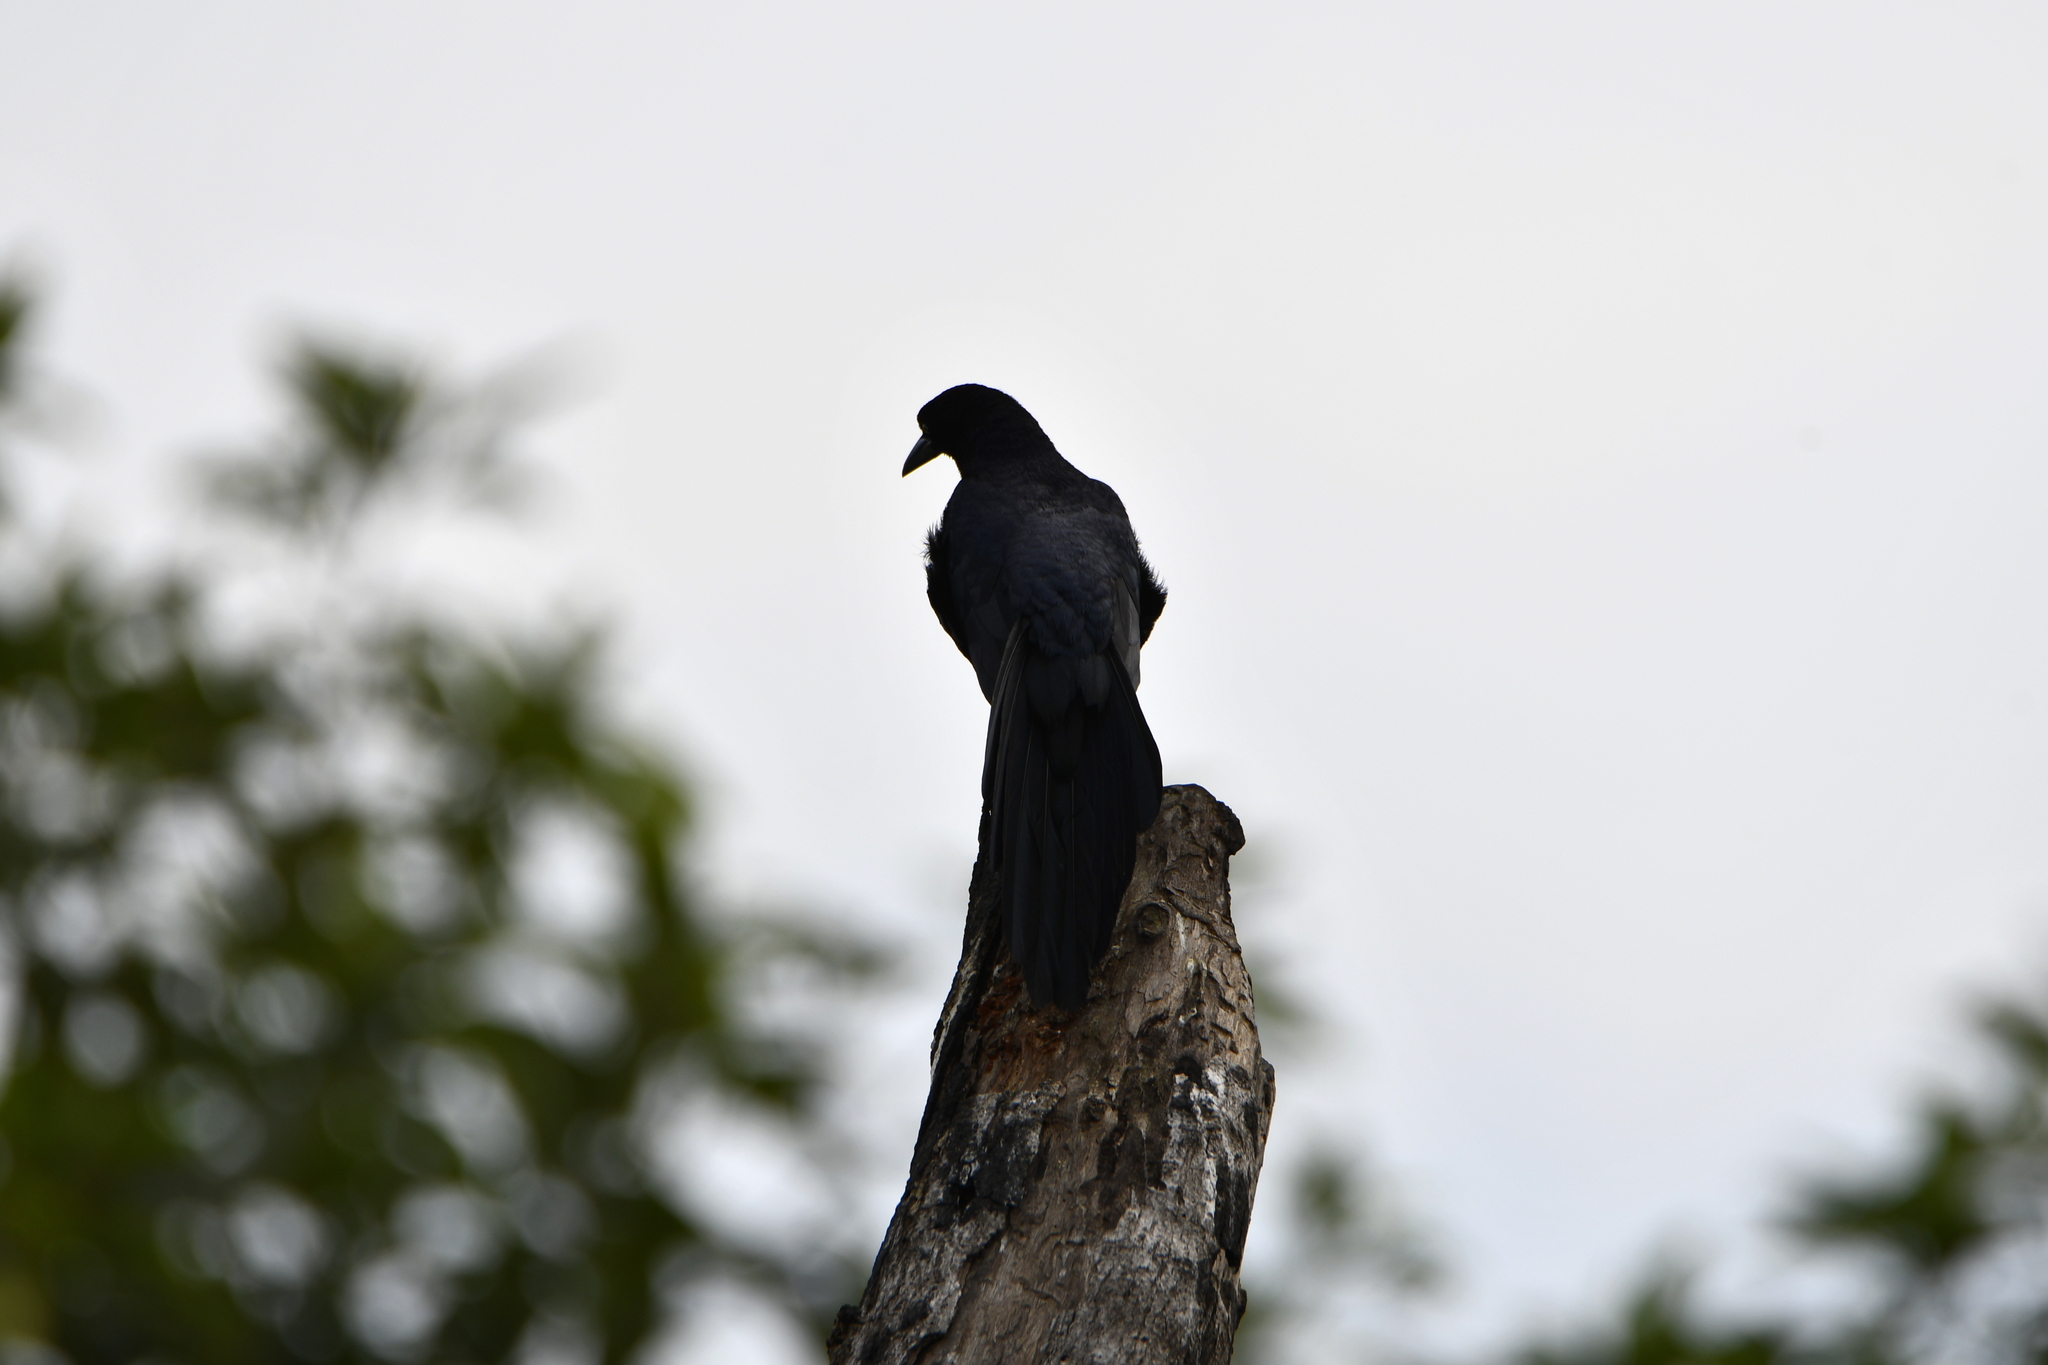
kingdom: Animalia
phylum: Chordata
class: Aves
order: Passeriformes
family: Icteridae
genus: Quiscalus
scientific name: Quiscalus mexicanus
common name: Great-tailed grackle
